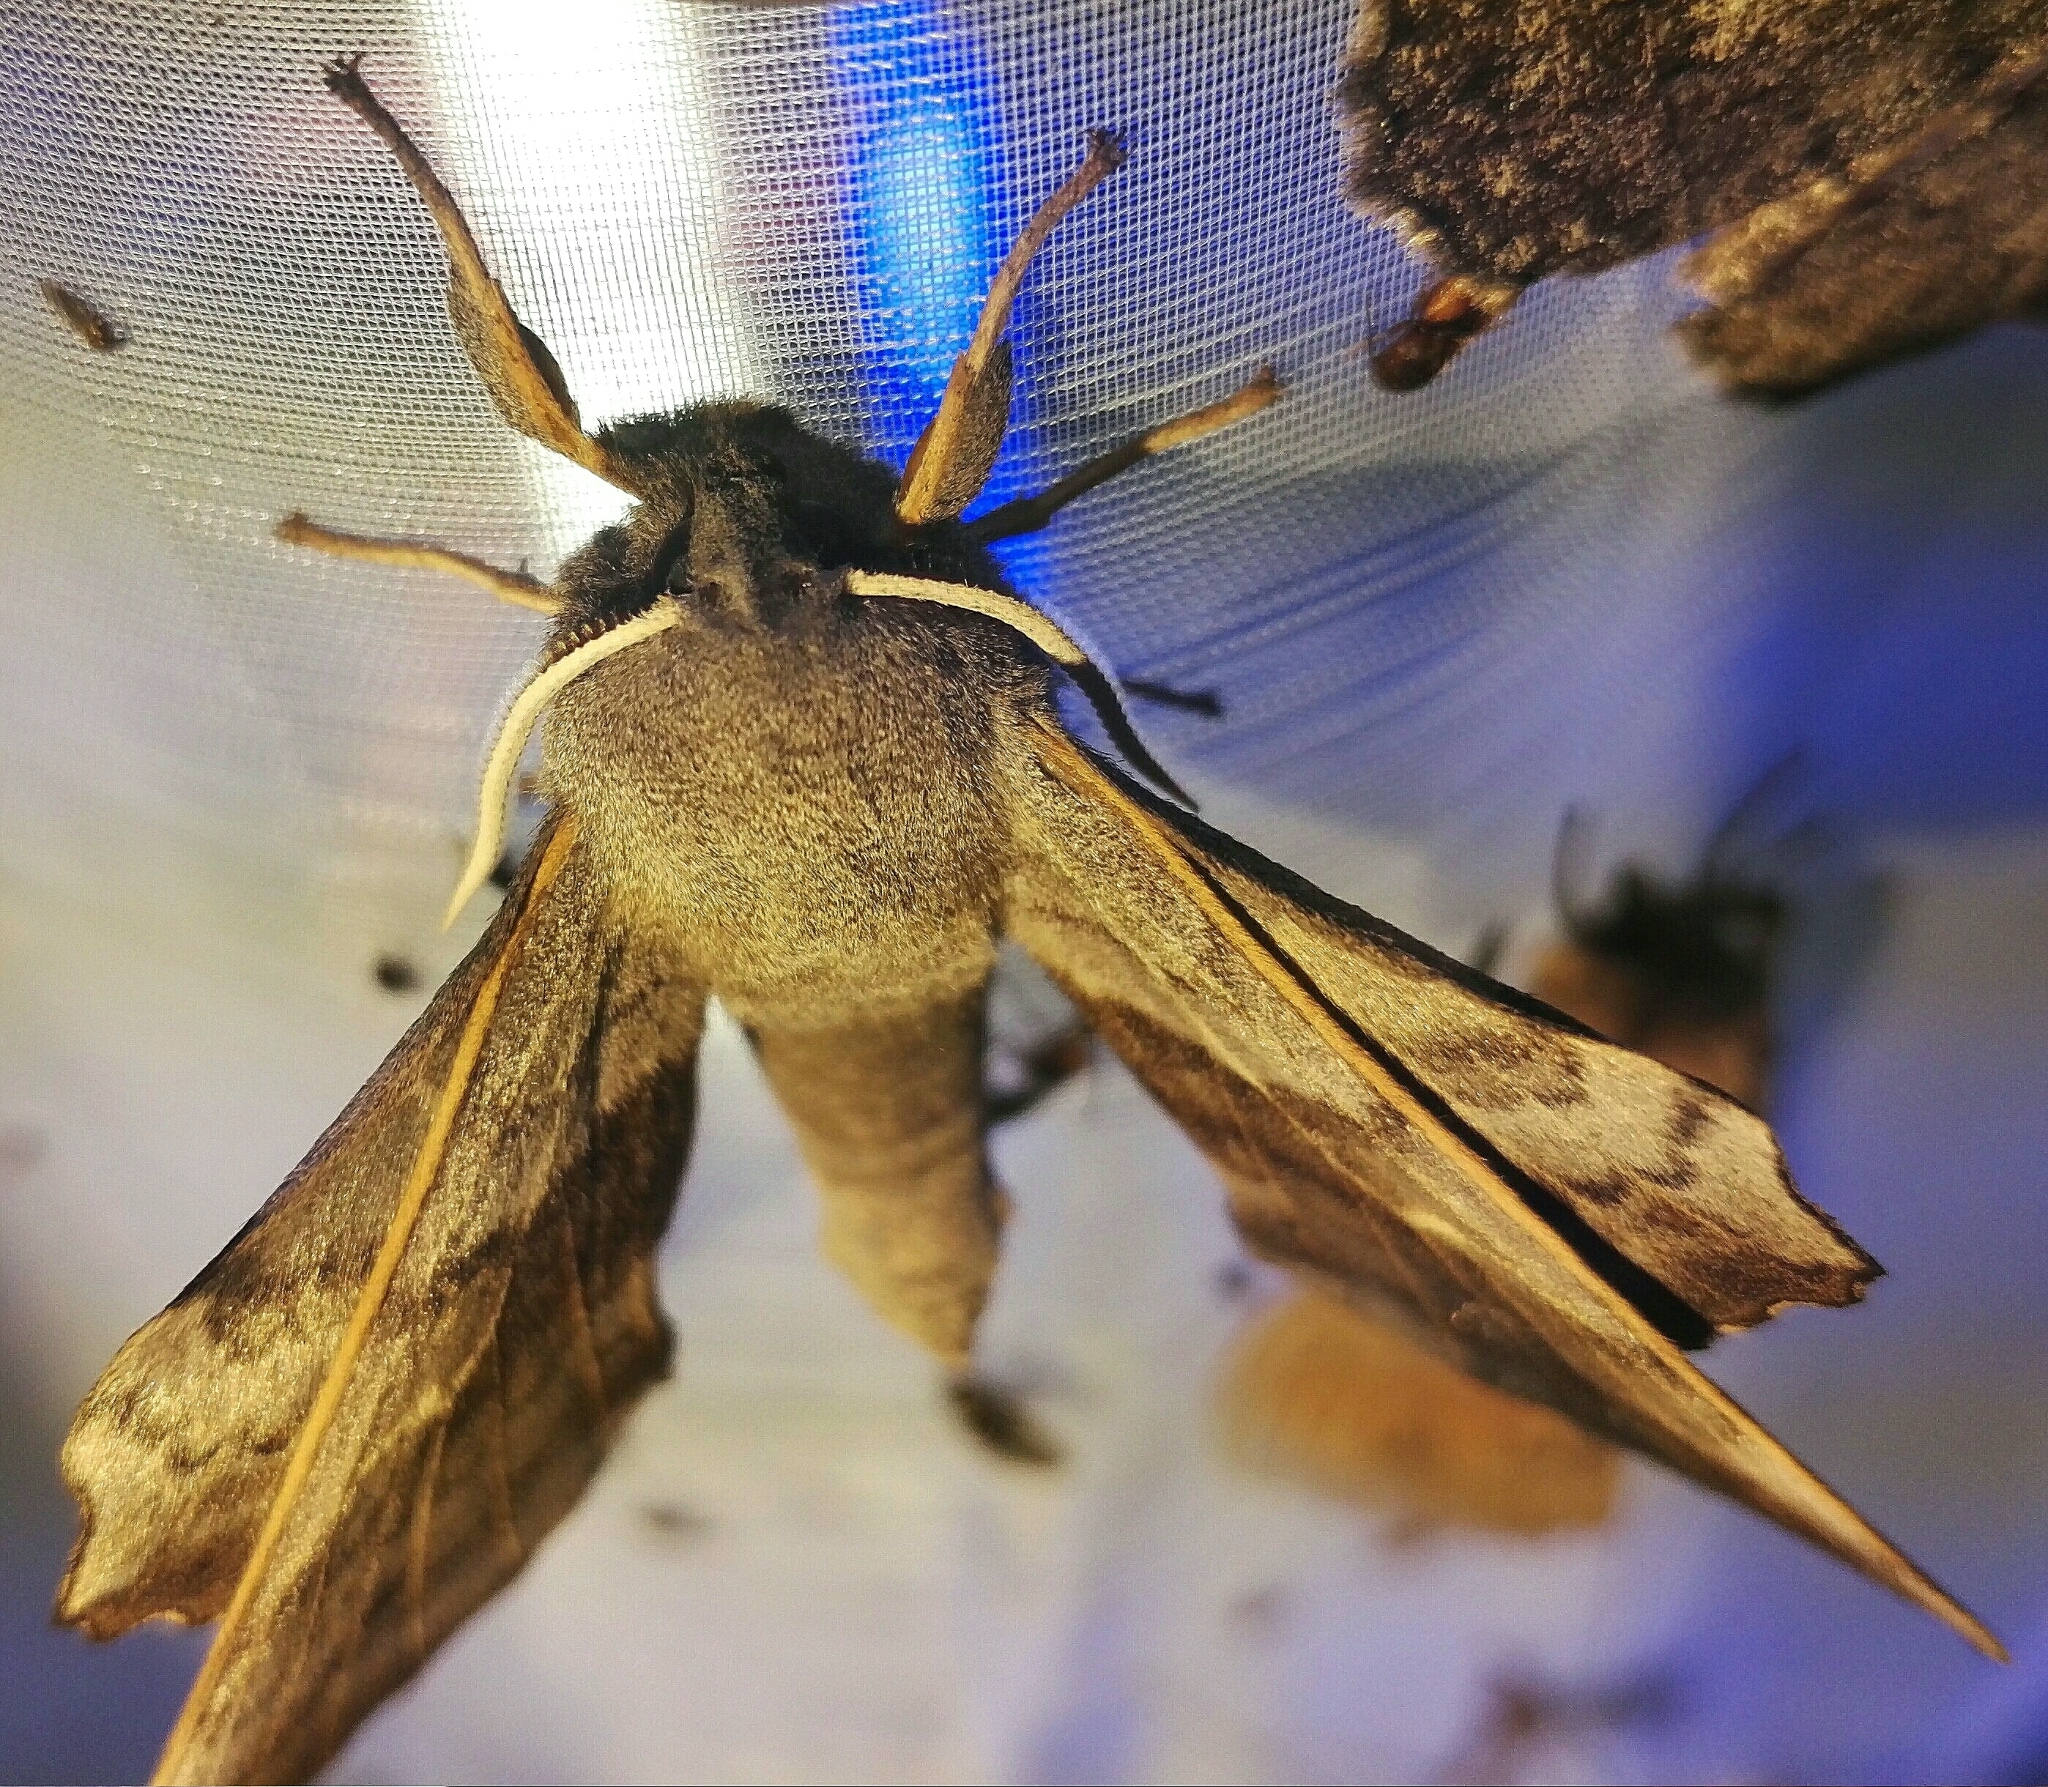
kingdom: Animalia
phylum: Arthropoda
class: Insecta
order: Lepidoptera
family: Sphingidae
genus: Laothoe
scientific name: Laothoe populi
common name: Poplar hawk-moth
